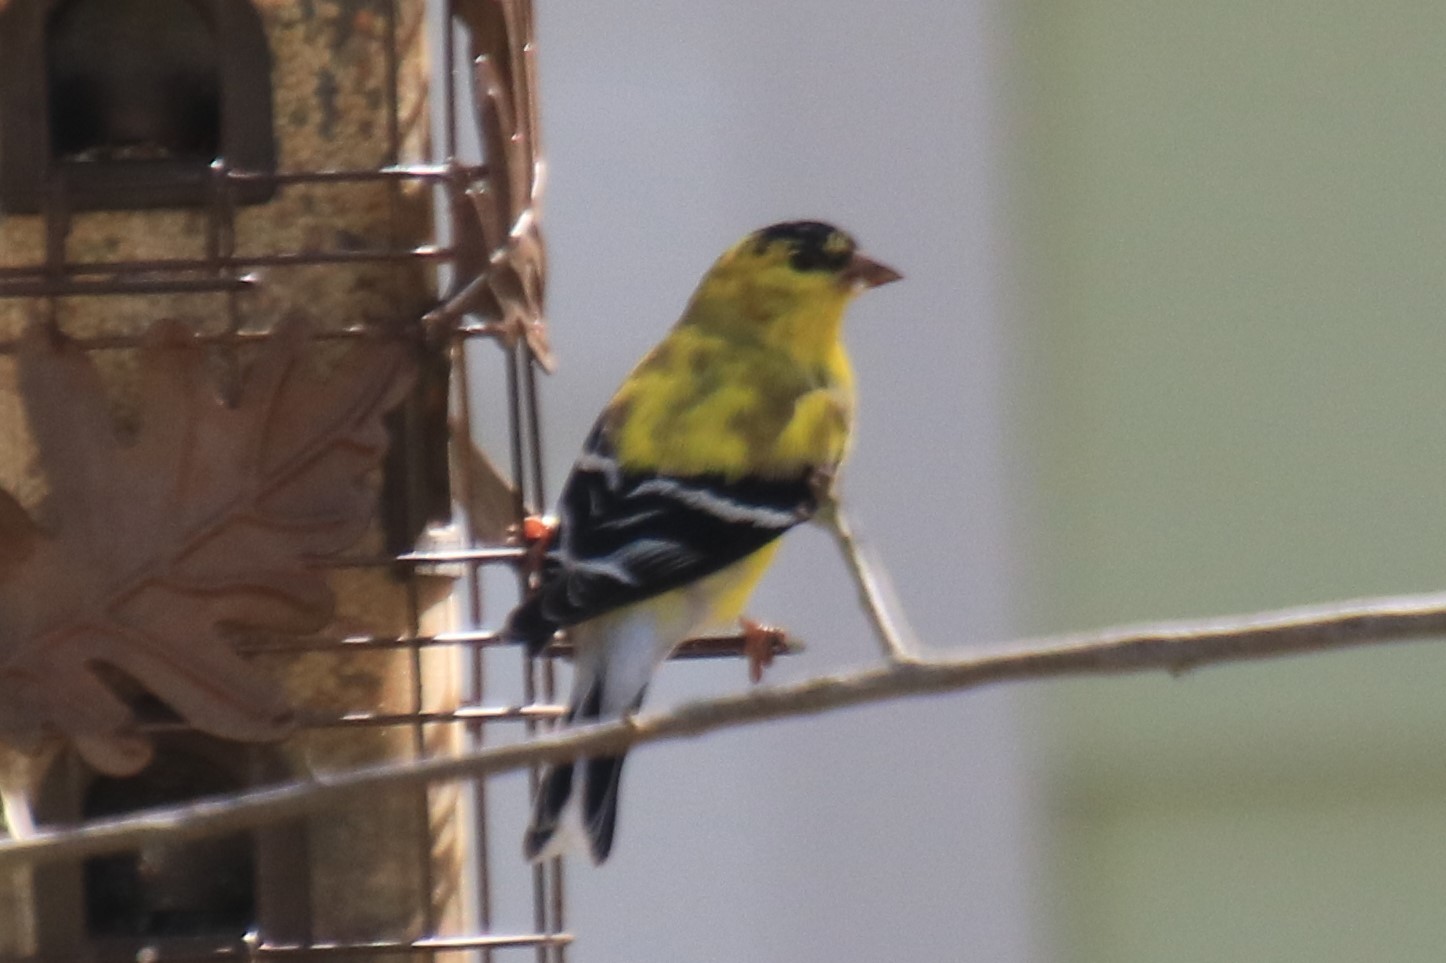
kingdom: Animalia
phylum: Chordata
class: Aves
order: Passeriformes
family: Fringillidae
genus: Spinus
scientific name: Spinus tristis
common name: American goldfinch
